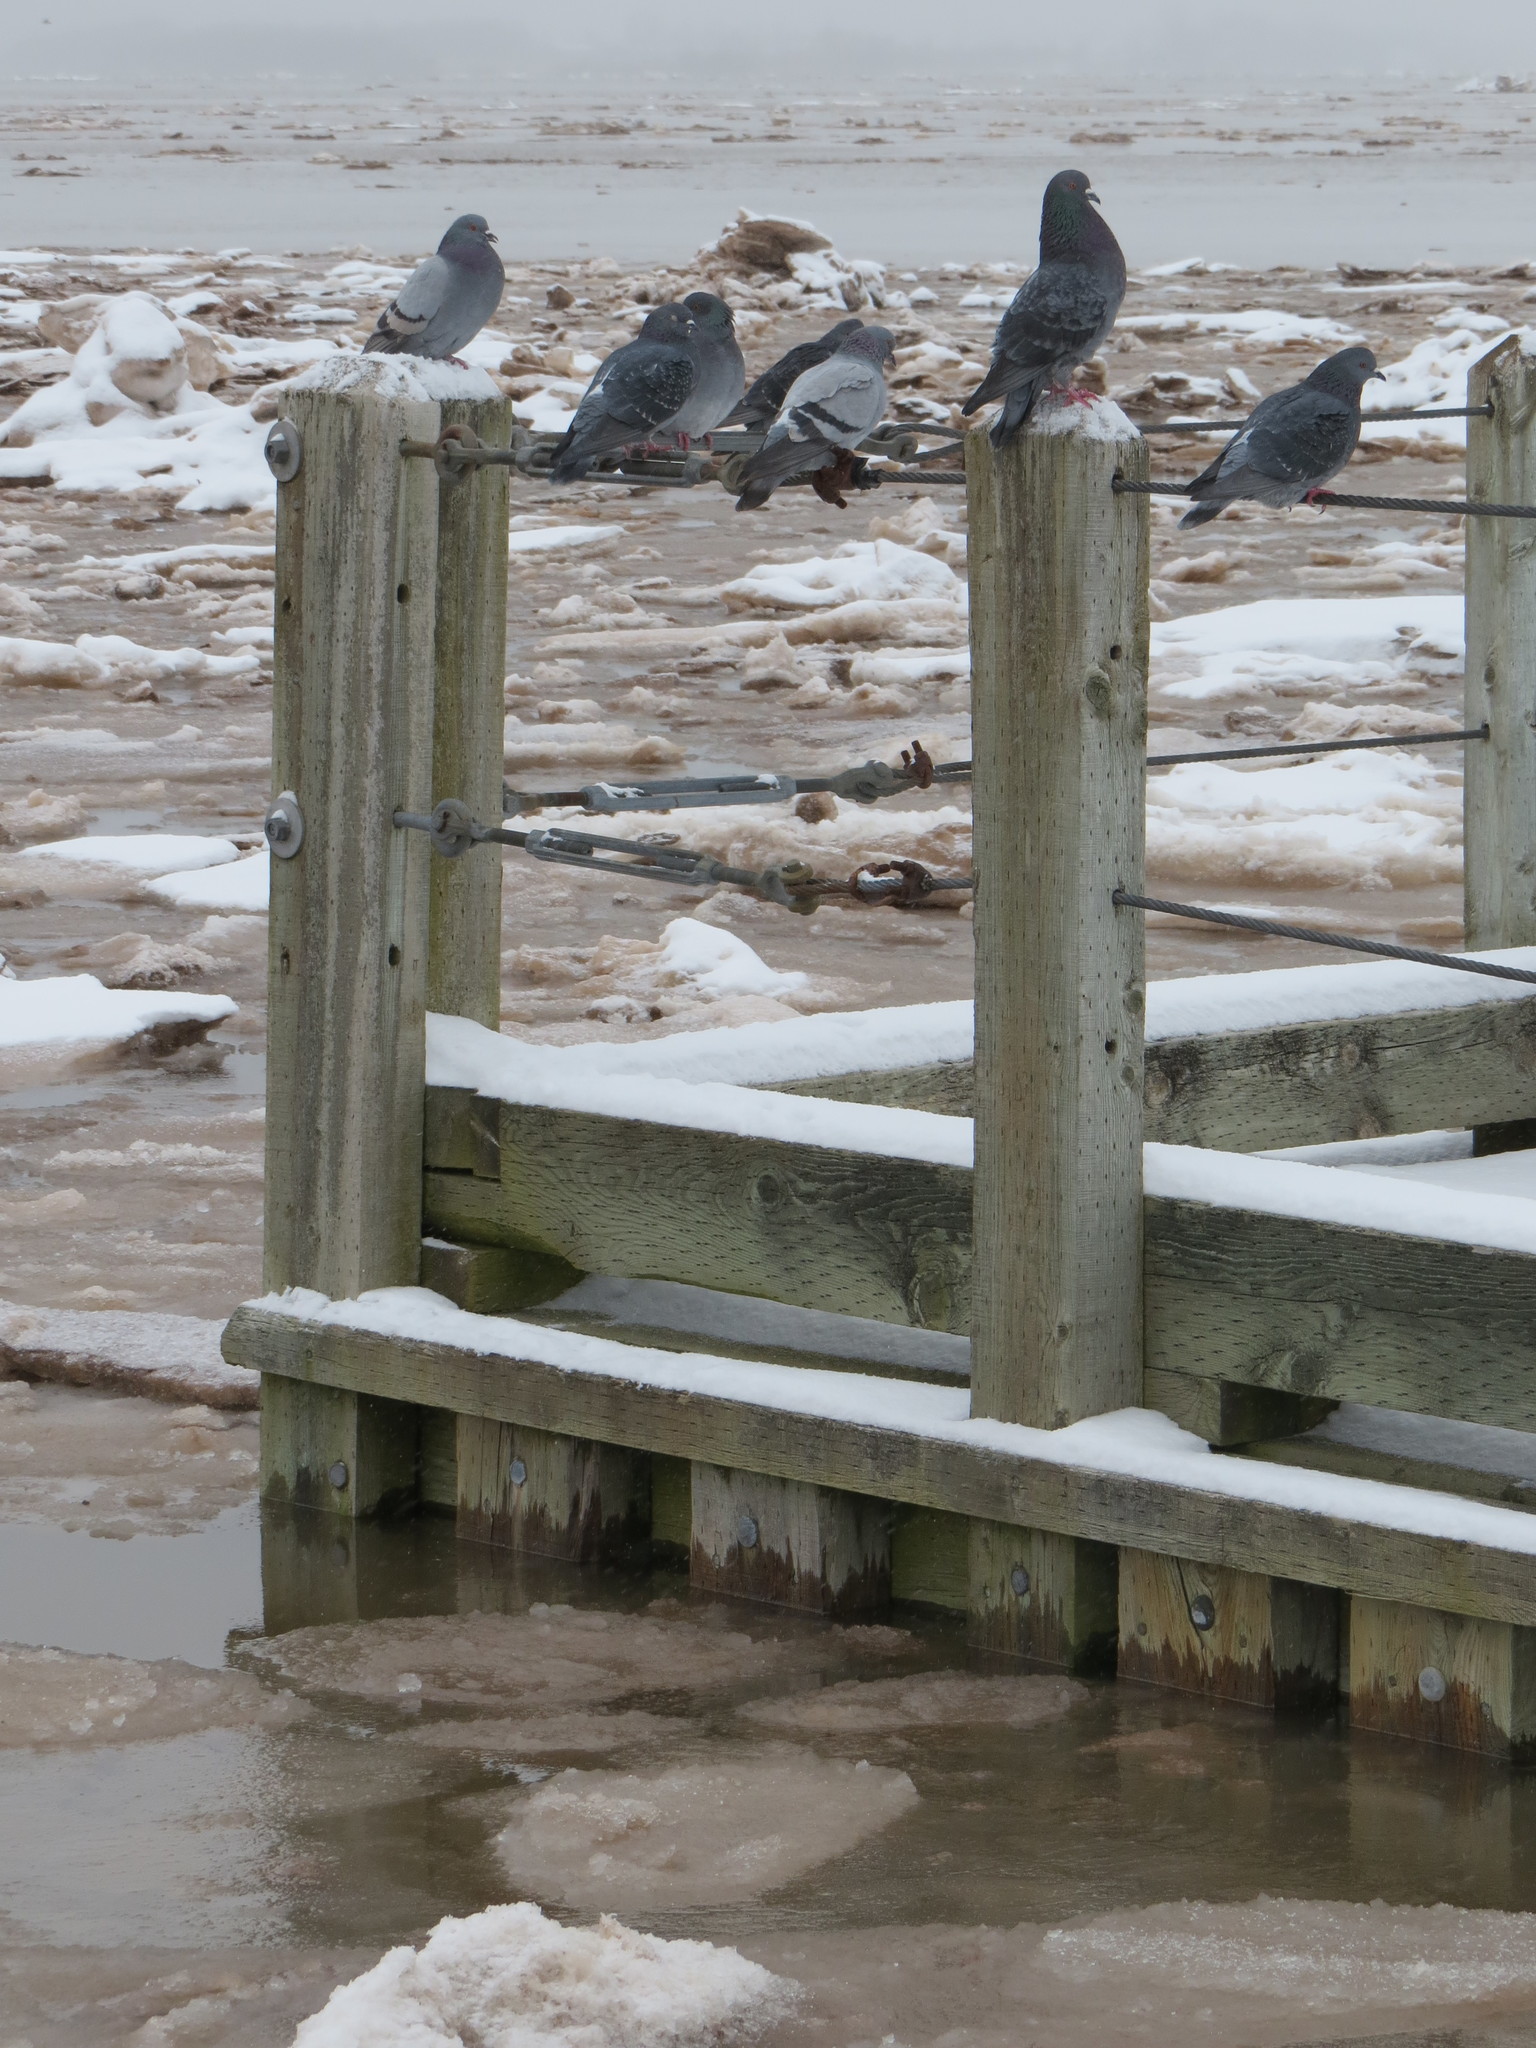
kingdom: Animalia
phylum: Chordata
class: Aves
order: Columbiformes
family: Columbidae
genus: Columba
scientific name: Columba livia
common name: Rock pigeon
